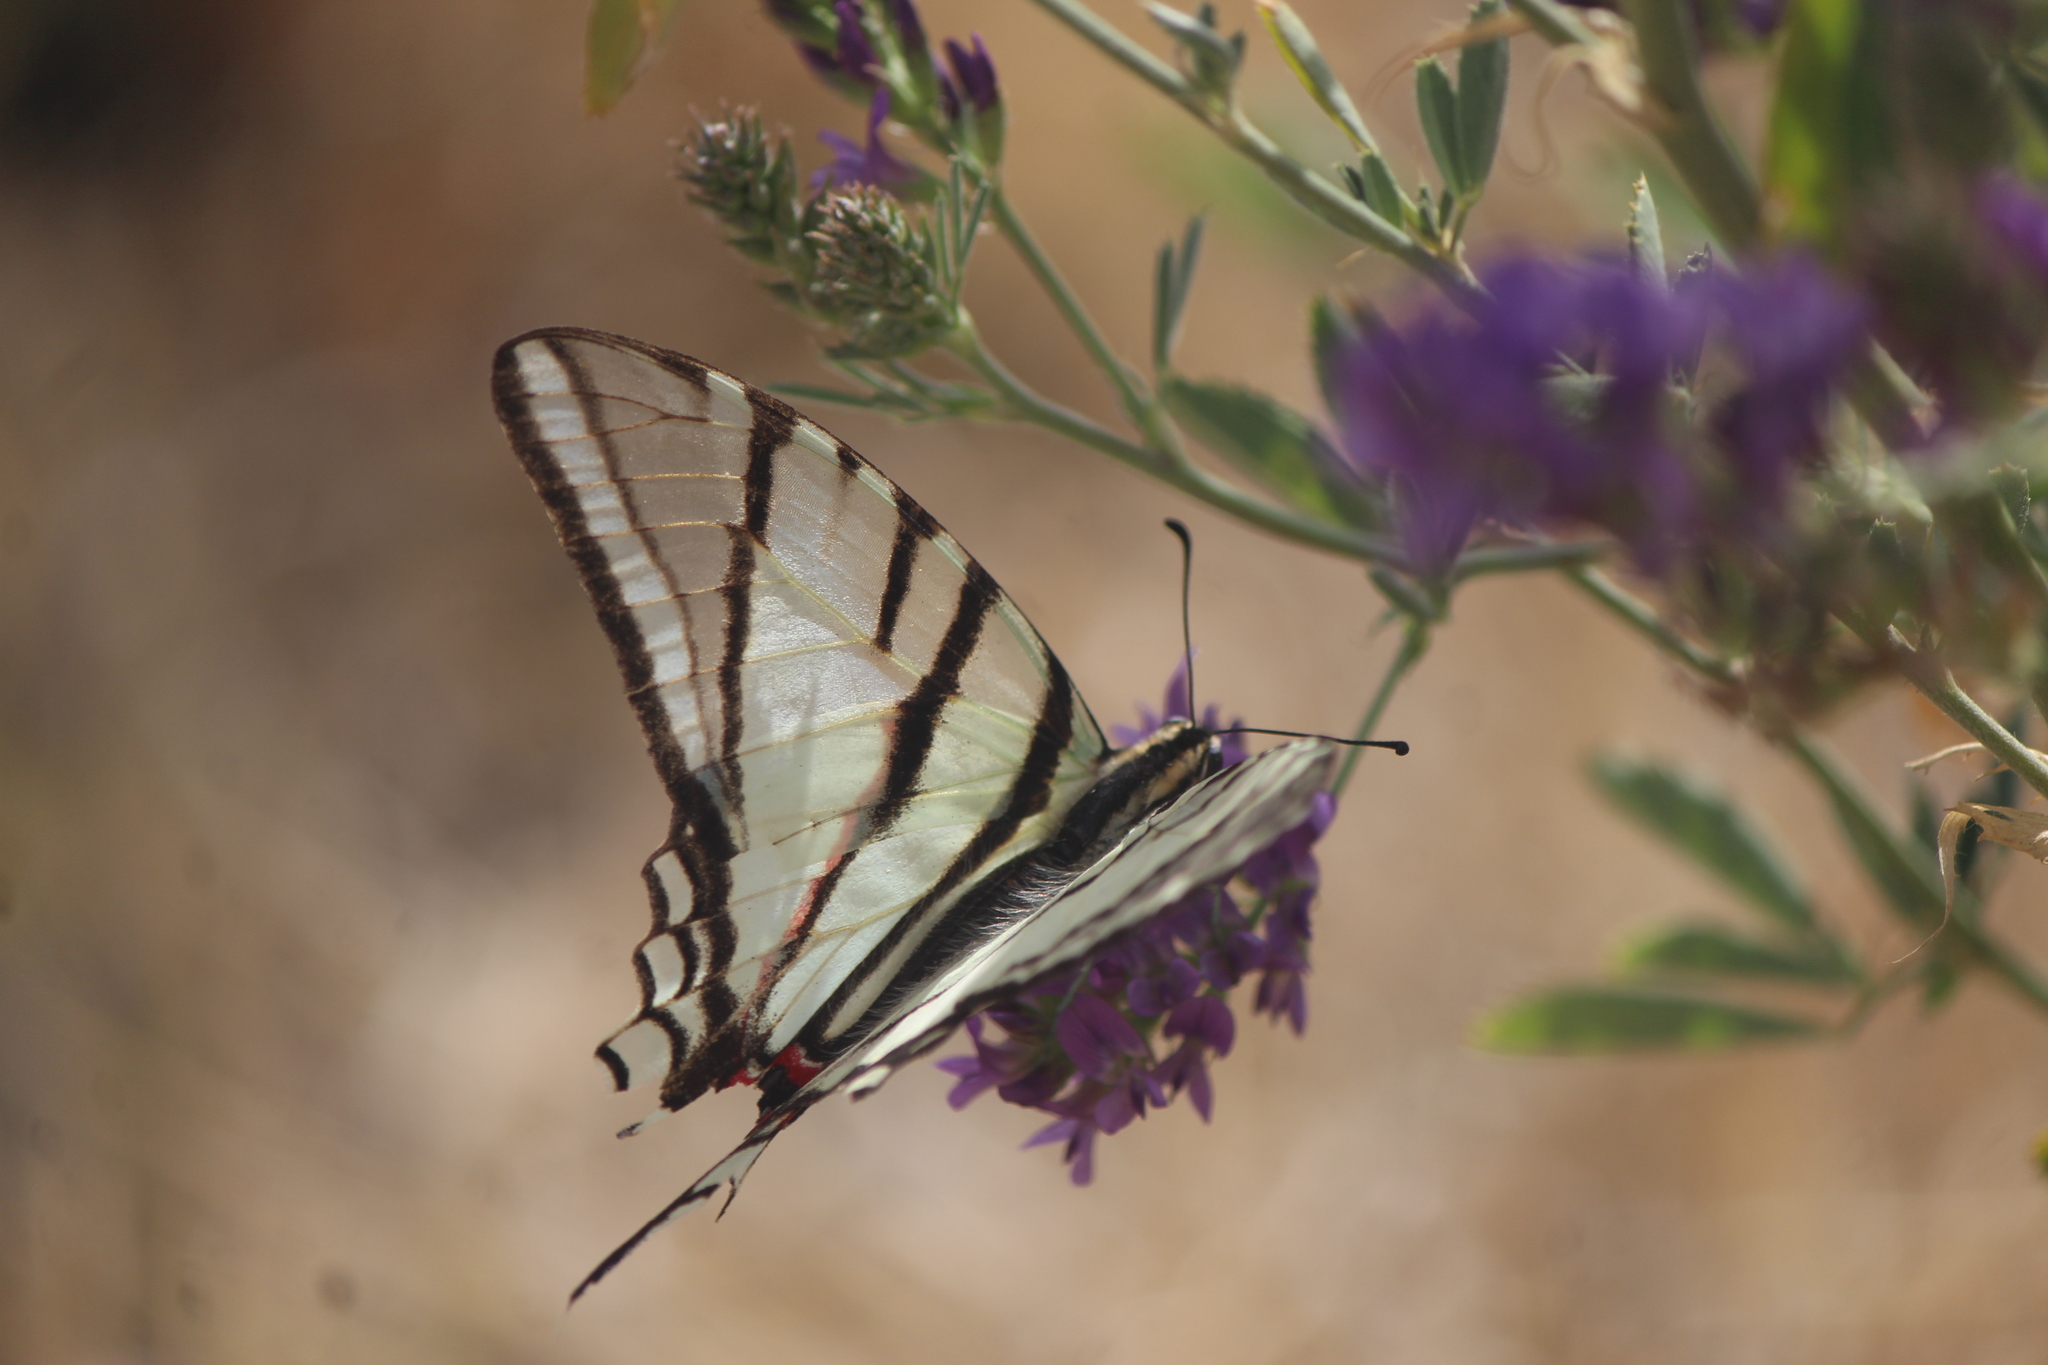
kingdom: Animalia
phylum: Arthropoda
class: Insecta
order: Lepidoptera
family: Papilionidae
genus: Protographium
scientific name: Protographium epidaus
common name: Mexican kite swallowtail
